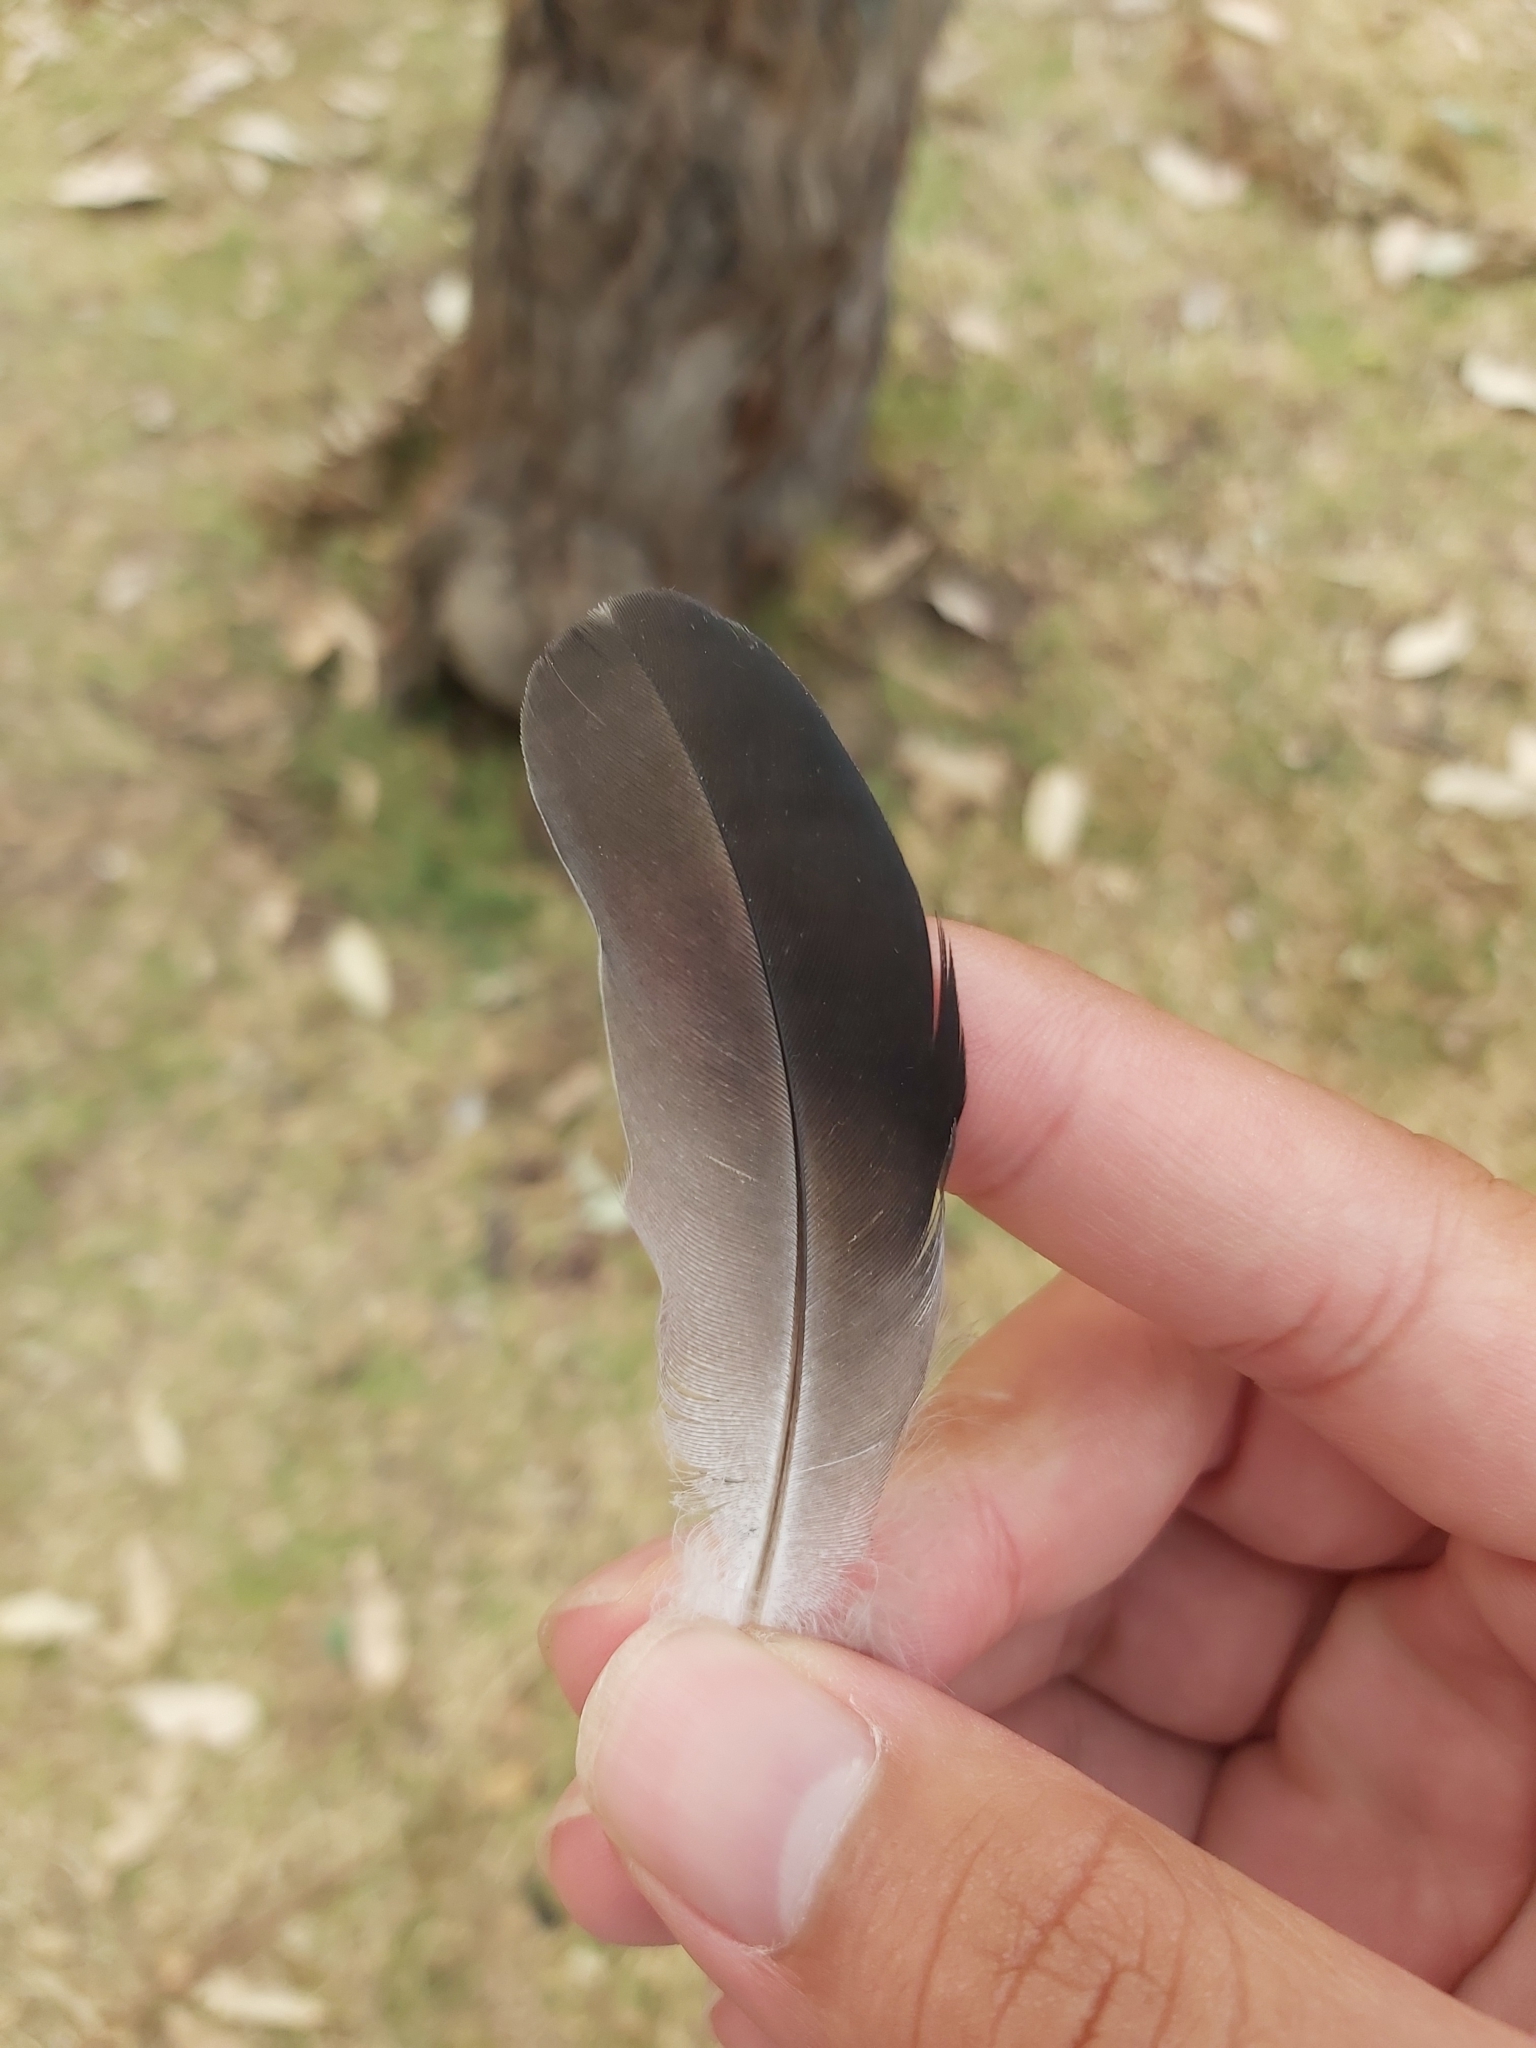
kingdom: Animalia
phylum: Chordata
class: Aves
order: Columbiformes
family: Columbidae
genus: Columba
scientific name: Columba livia
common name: Rock pigeon
